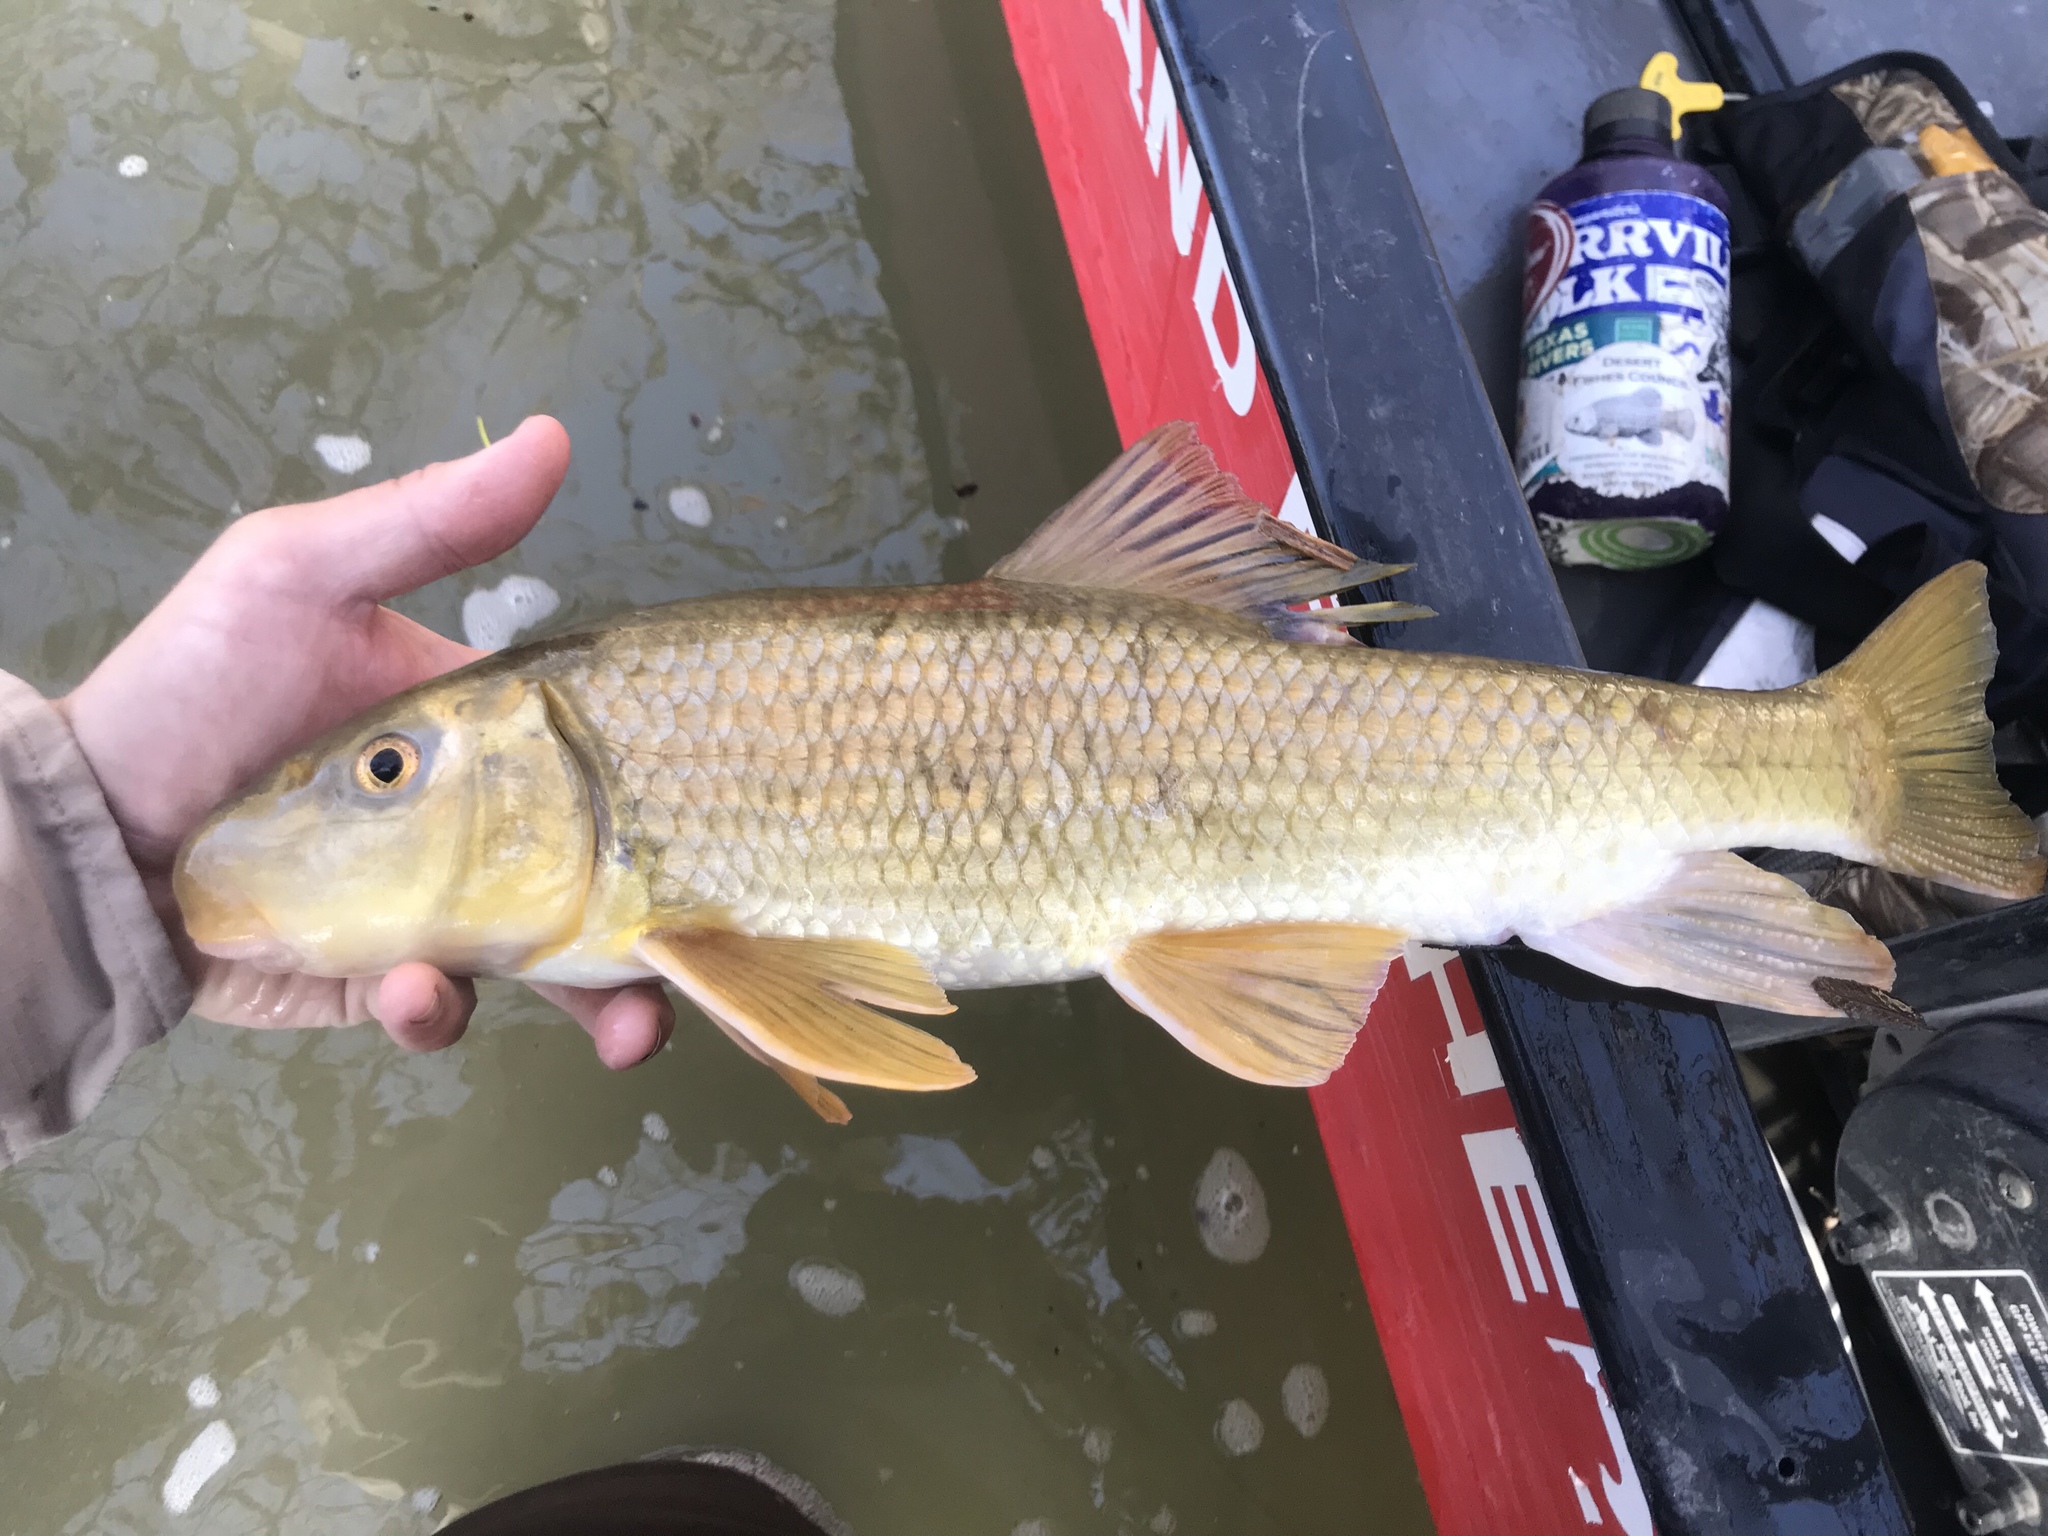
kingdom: Animalia
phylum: Chordata
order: Cypriniformes
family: Catostomidae
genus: Moxostoma
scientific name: Moxostoma congestum
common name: Gray redhorse
